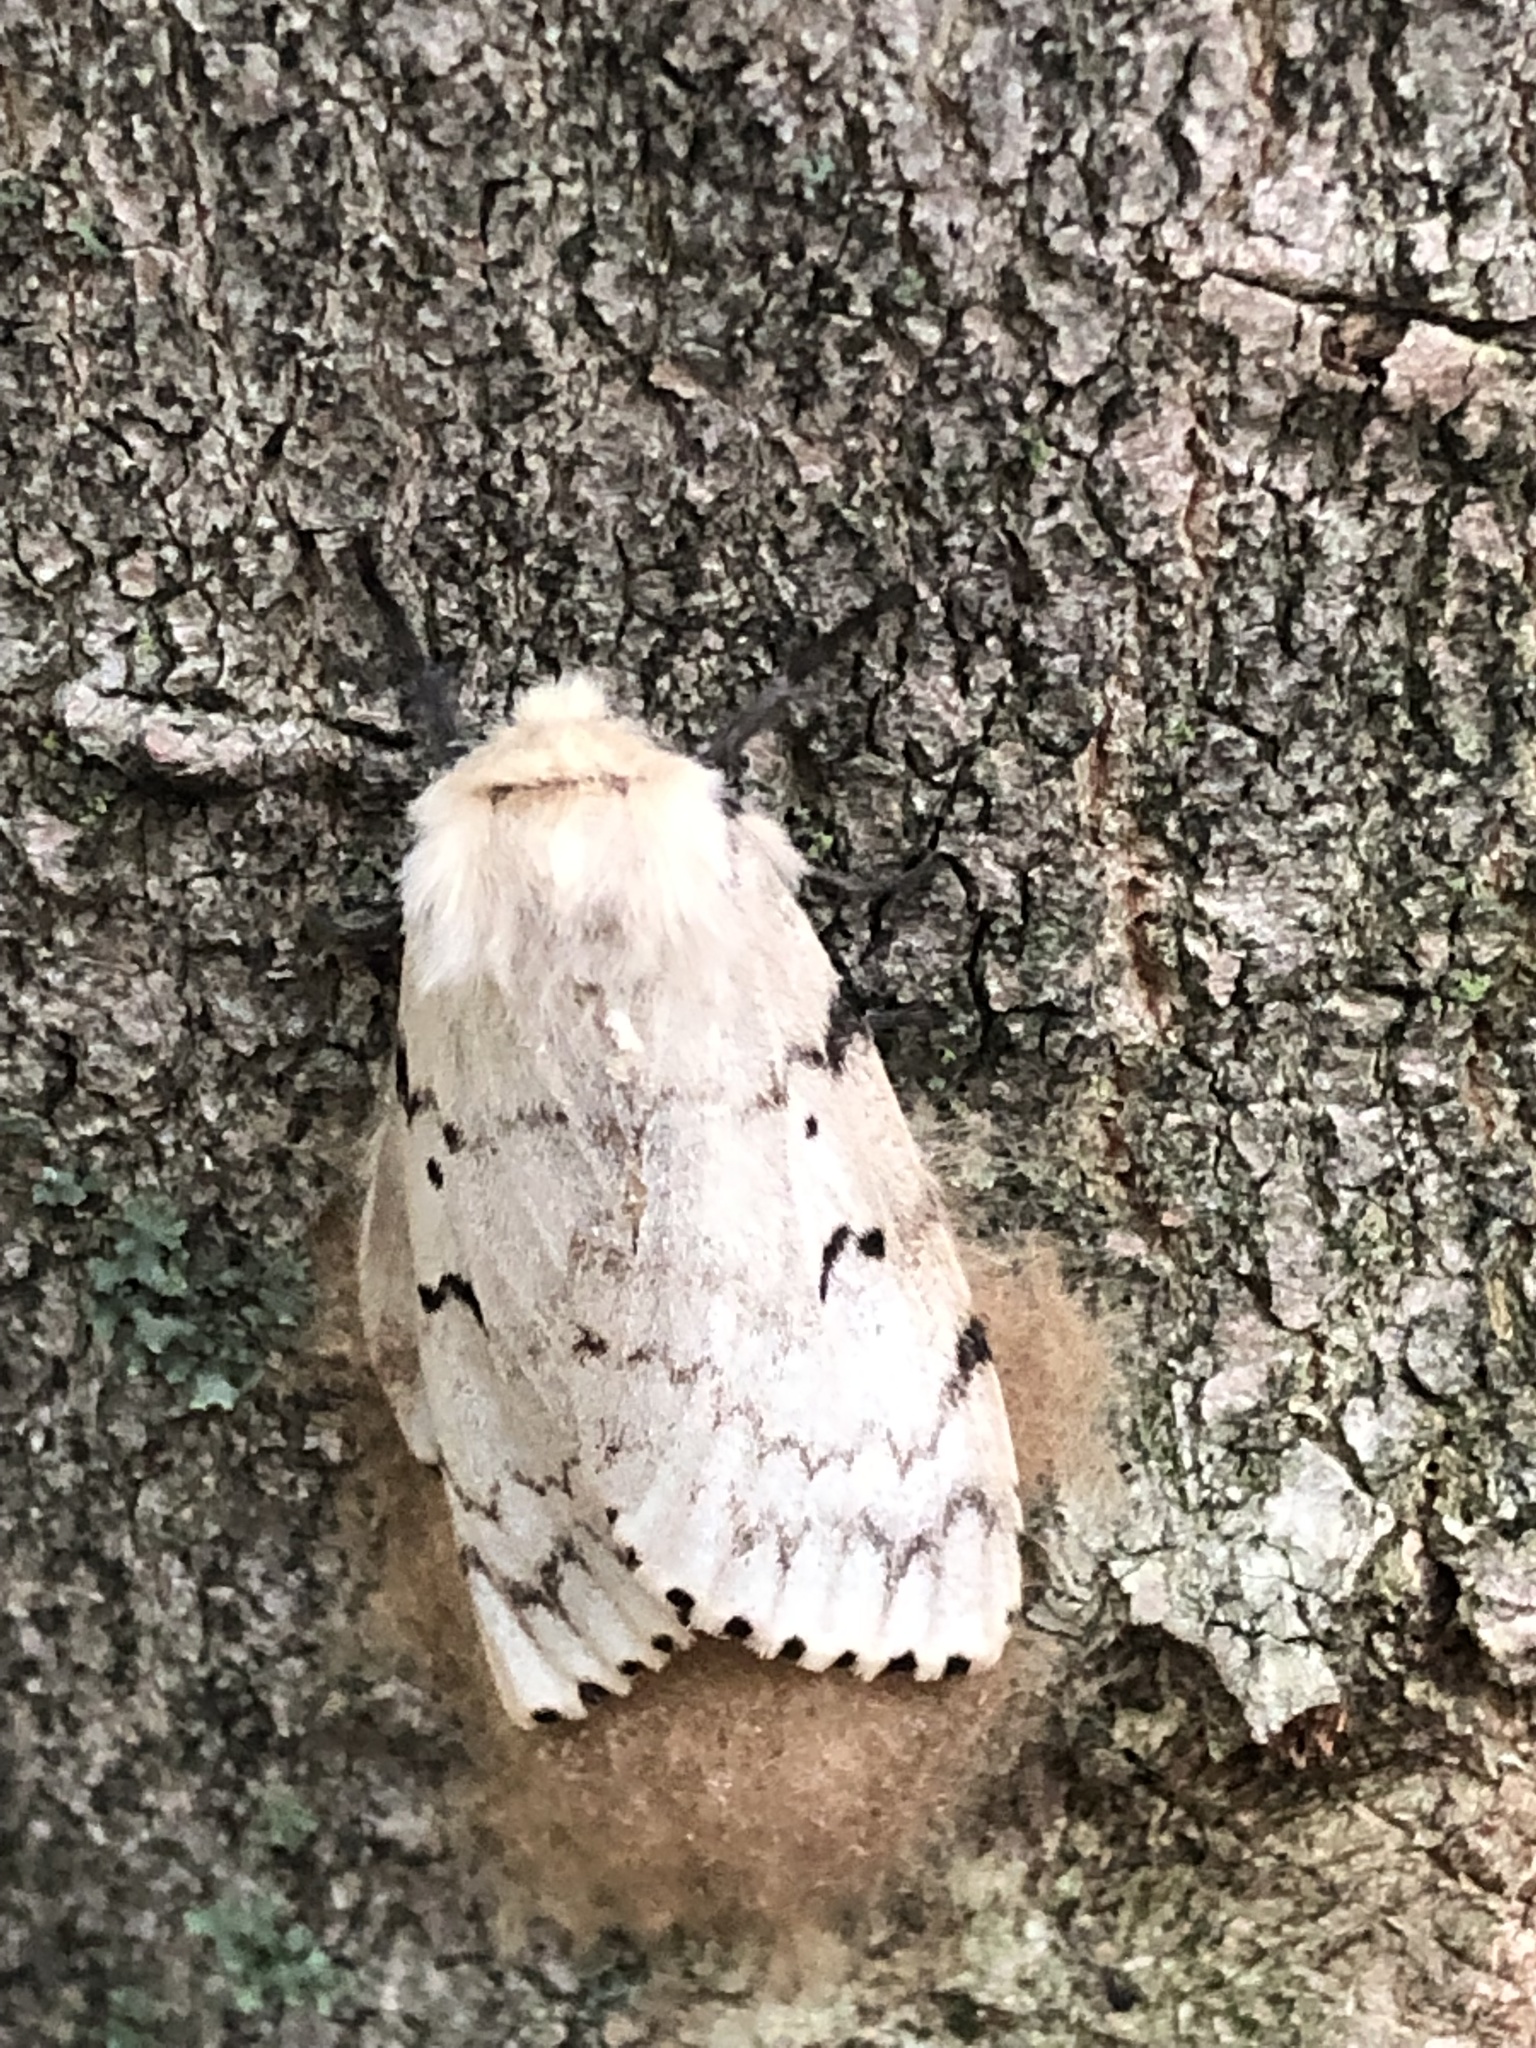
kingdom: Animalia
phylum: Arthropoda
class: Insecta
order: Lepidoptera
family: Erebidae
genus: Lymantria
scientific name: Lymantria dispar
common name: Gypsy moth
